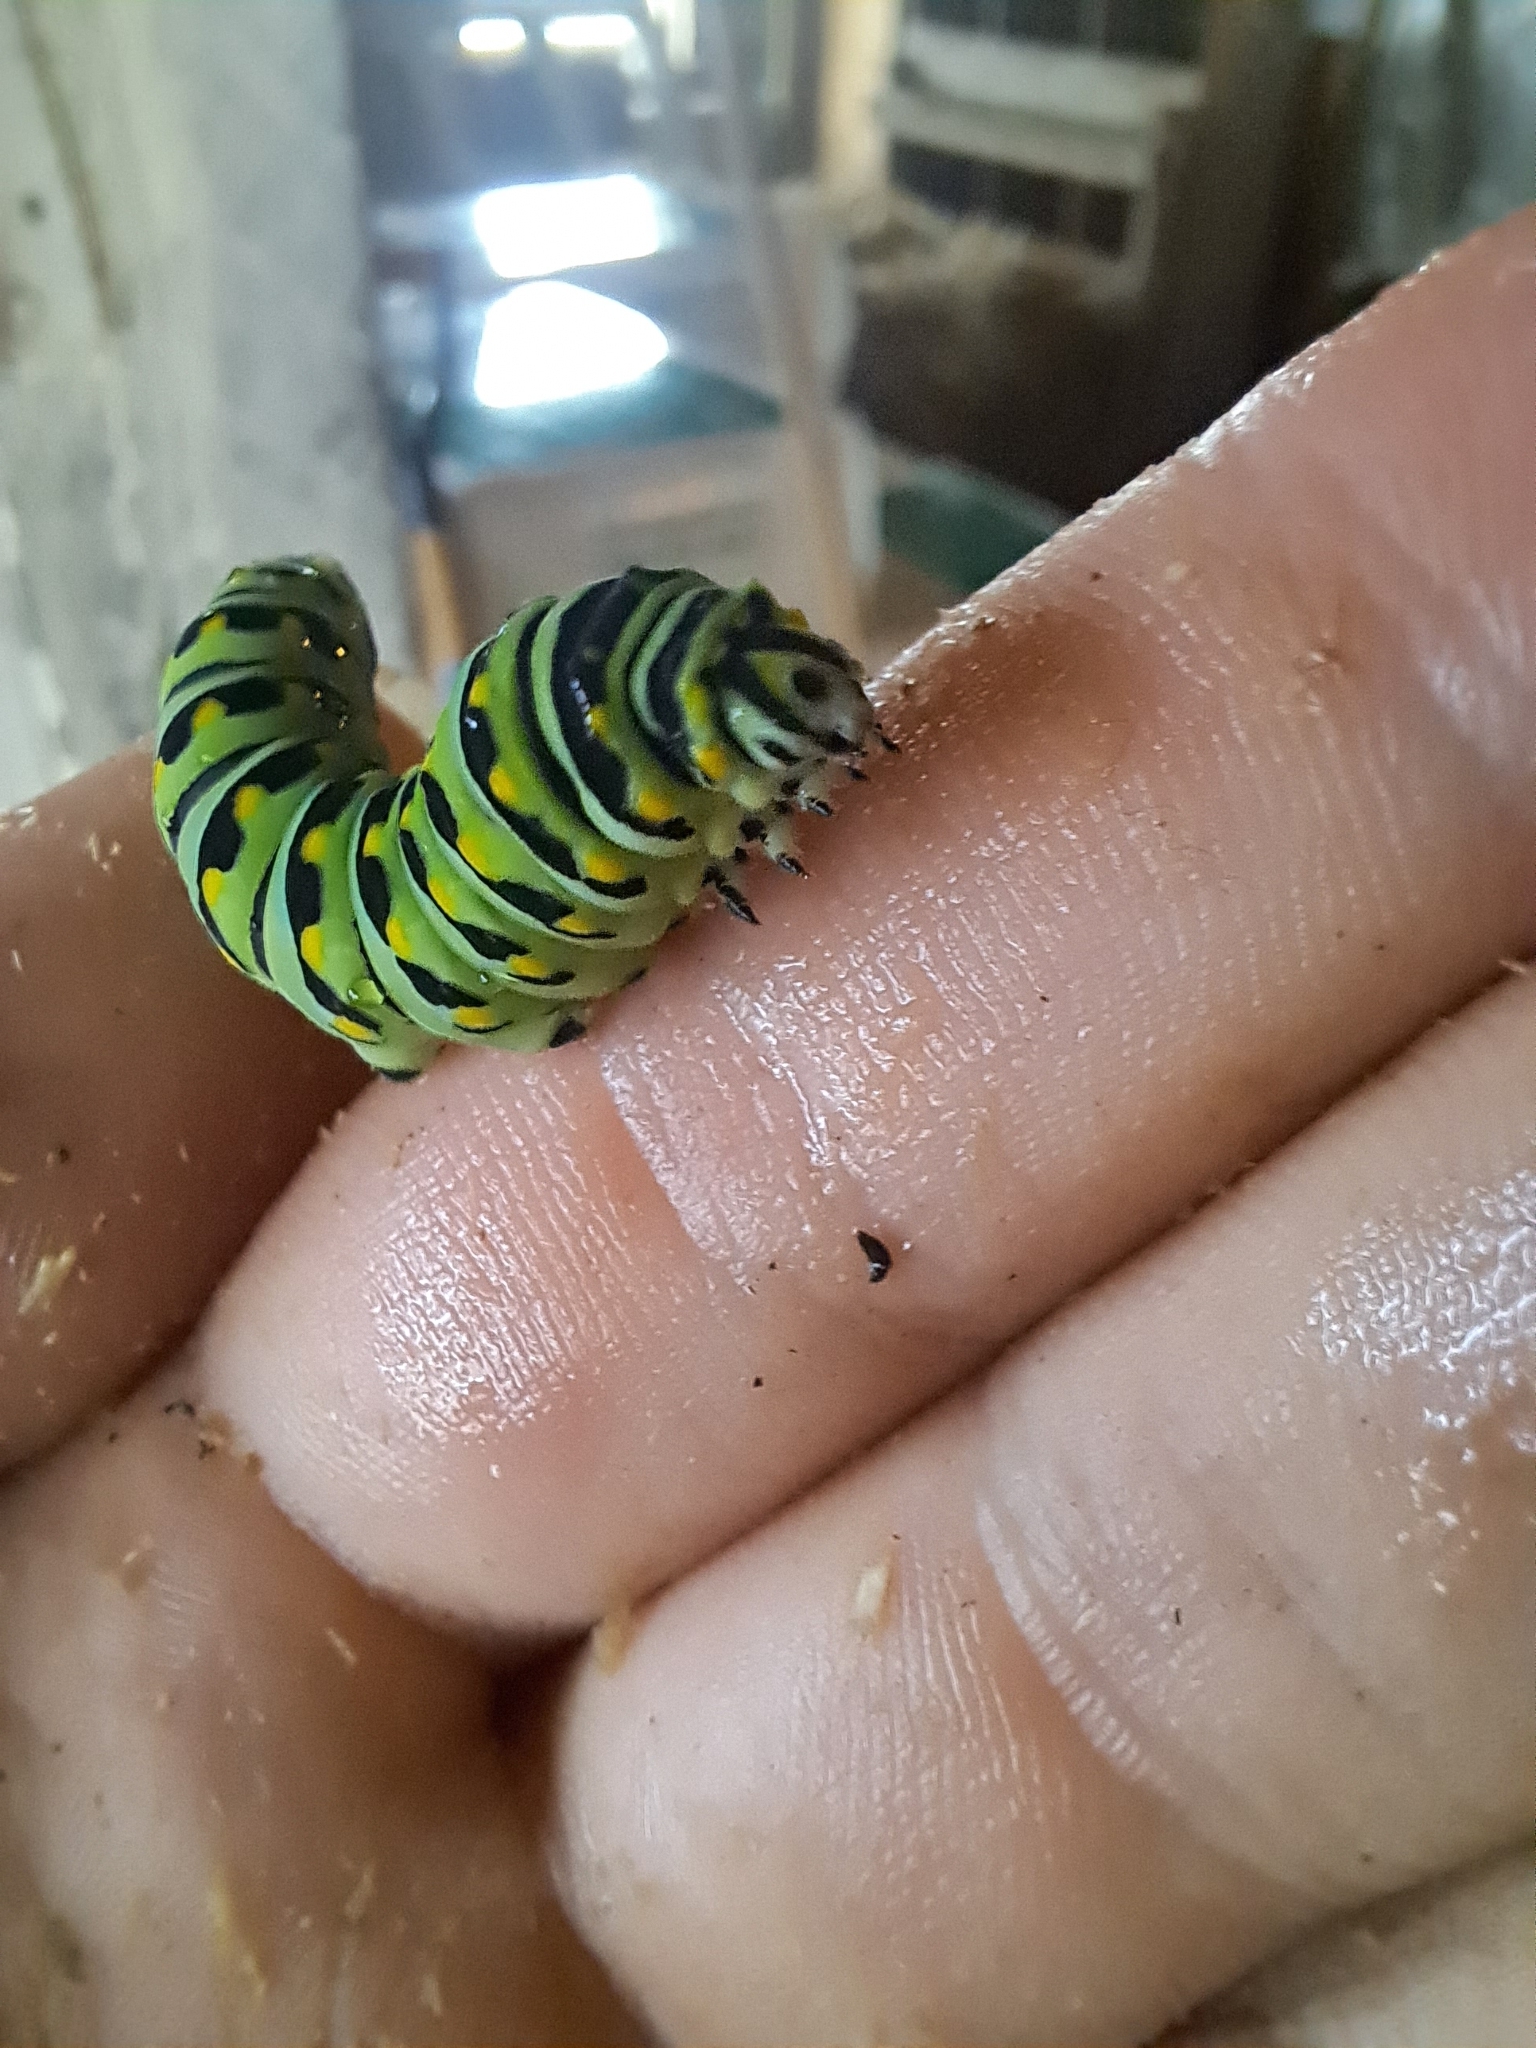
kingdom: Animalia
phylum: Arthropoda
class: Insecta
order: Lepidoptera
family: Papilionidae
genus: Papilio
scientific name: Papilio polyxenes
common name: Black swallowtail
